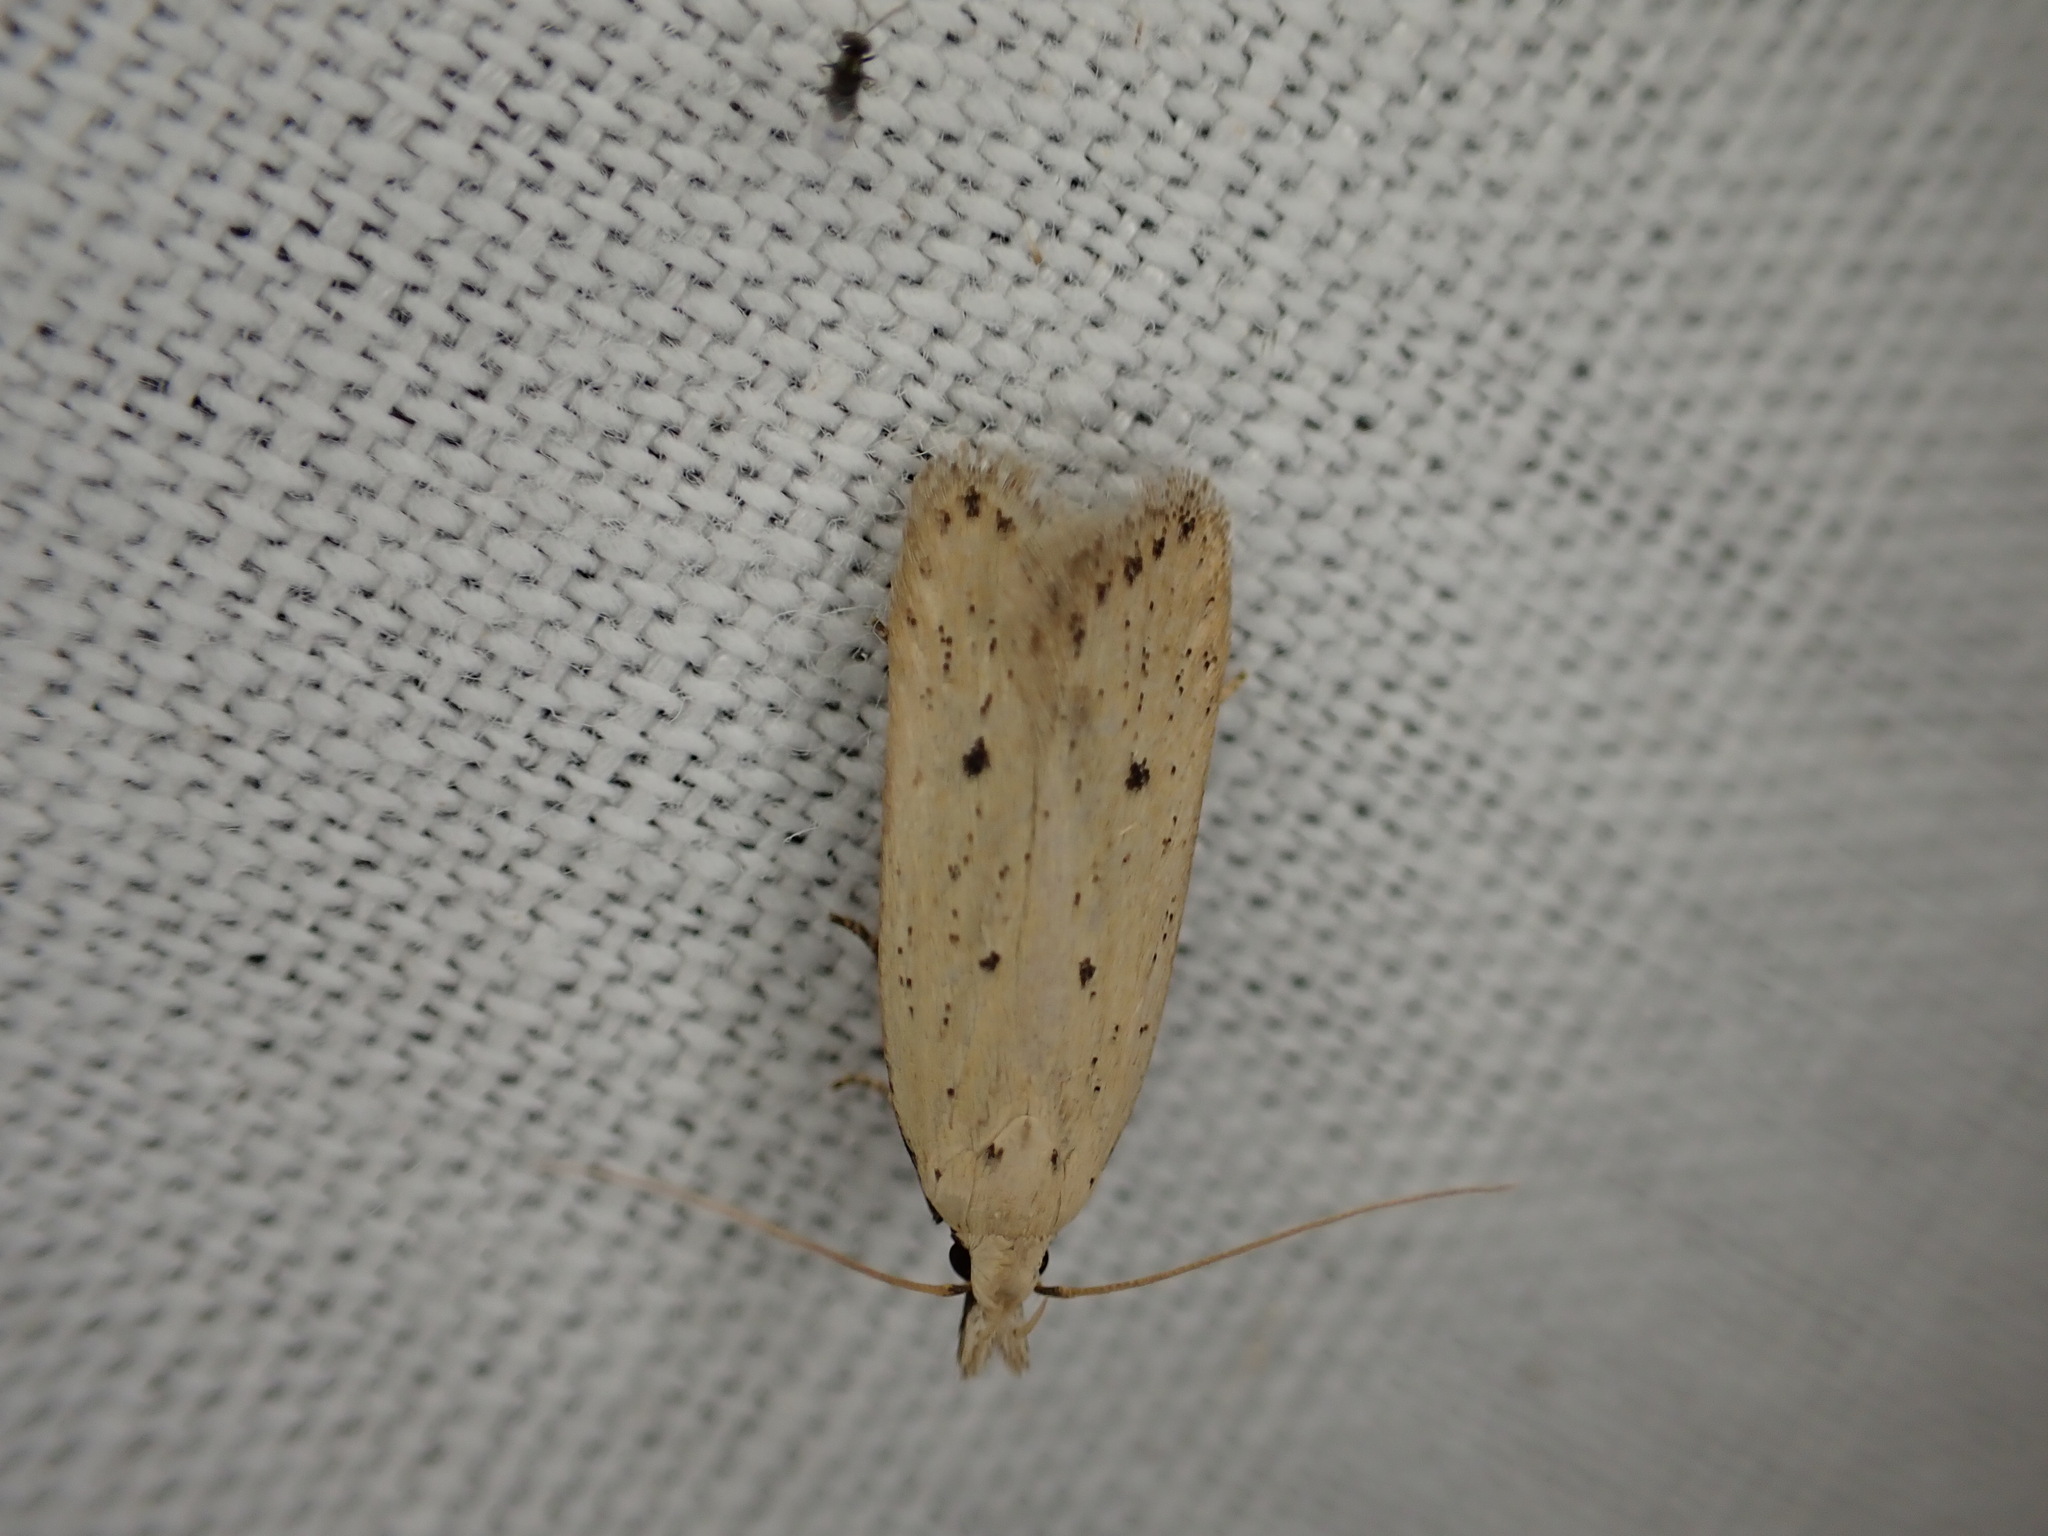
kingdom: Animalia
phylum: Arthropoda
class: Insecta
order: Lepidoptera
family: Gelechiidae
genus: Nothris
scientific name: Nothris verbascella
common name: Clay groundling
